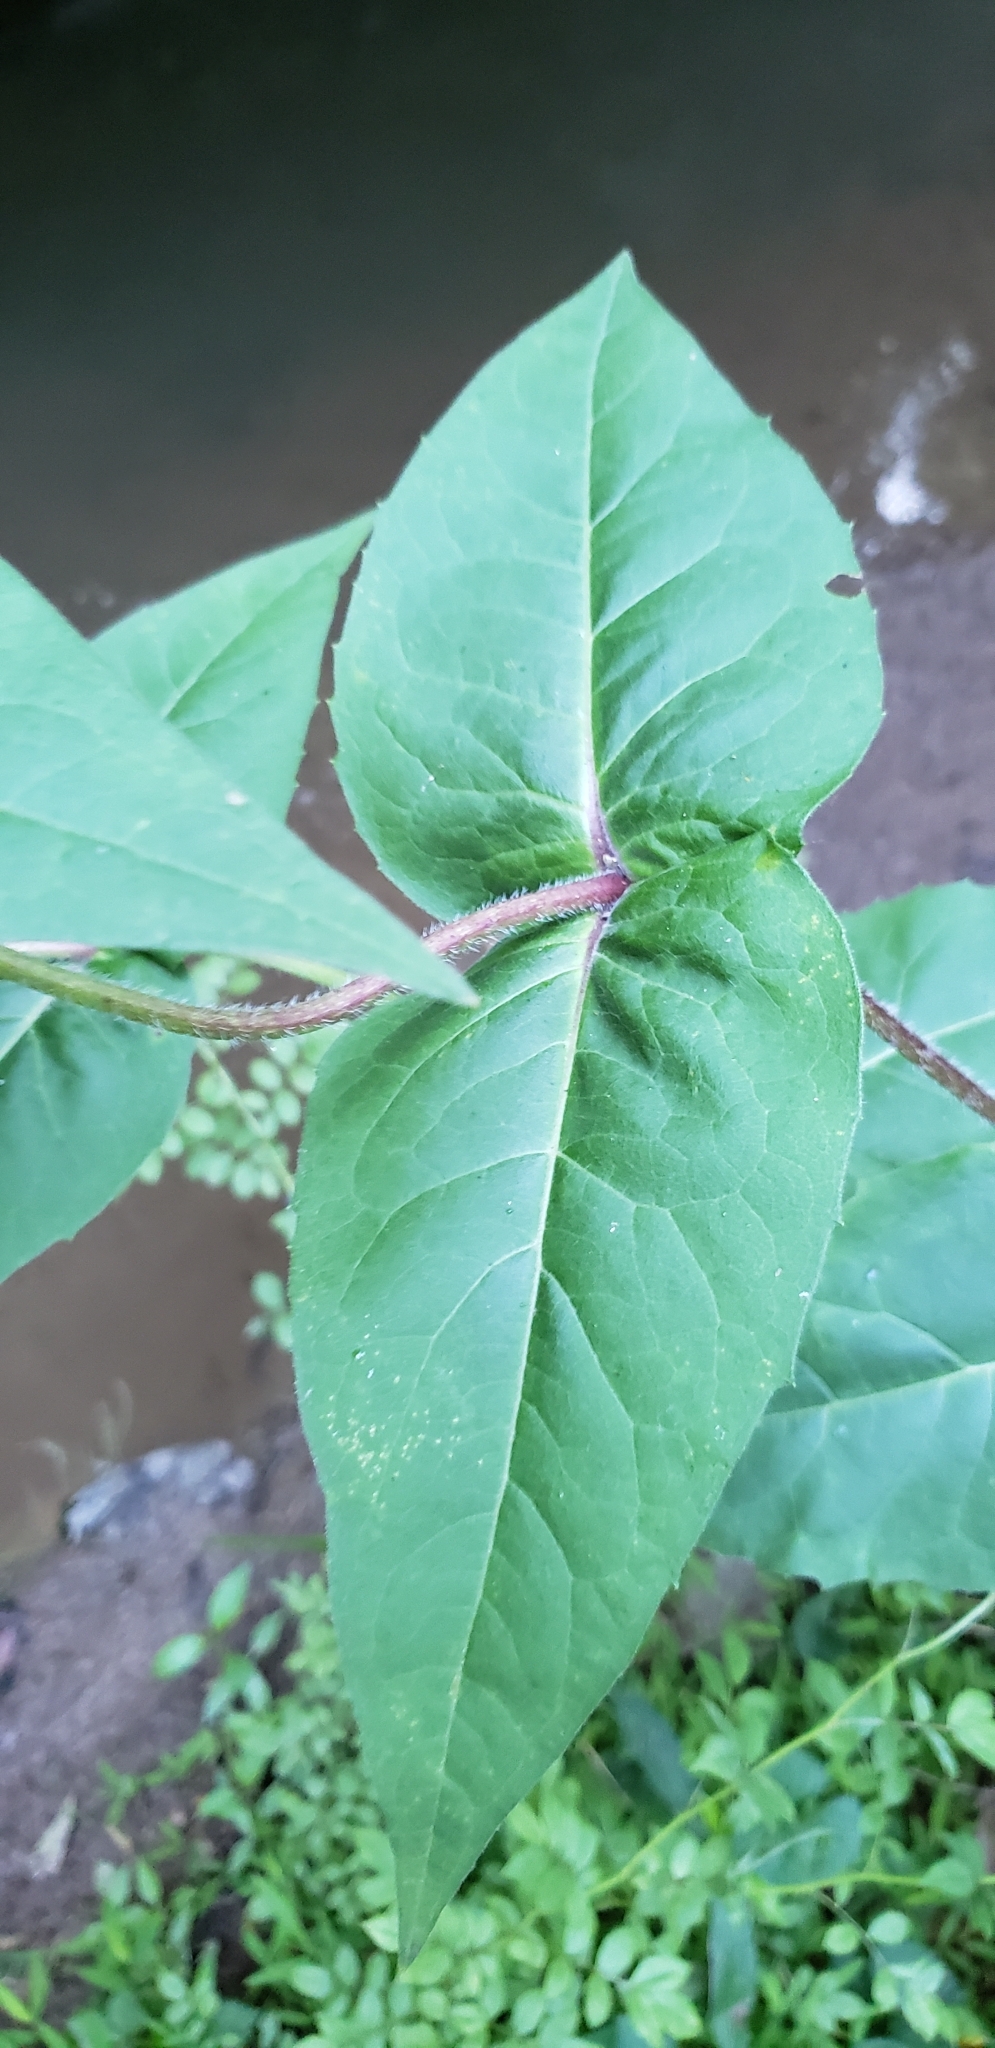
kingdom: Plantae
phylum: Tracheophyta
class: Magnoliopsida
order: Asterales
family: Asteraceae
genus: Silphium
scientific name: Silphium perfoliatum
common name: Cup-plant
